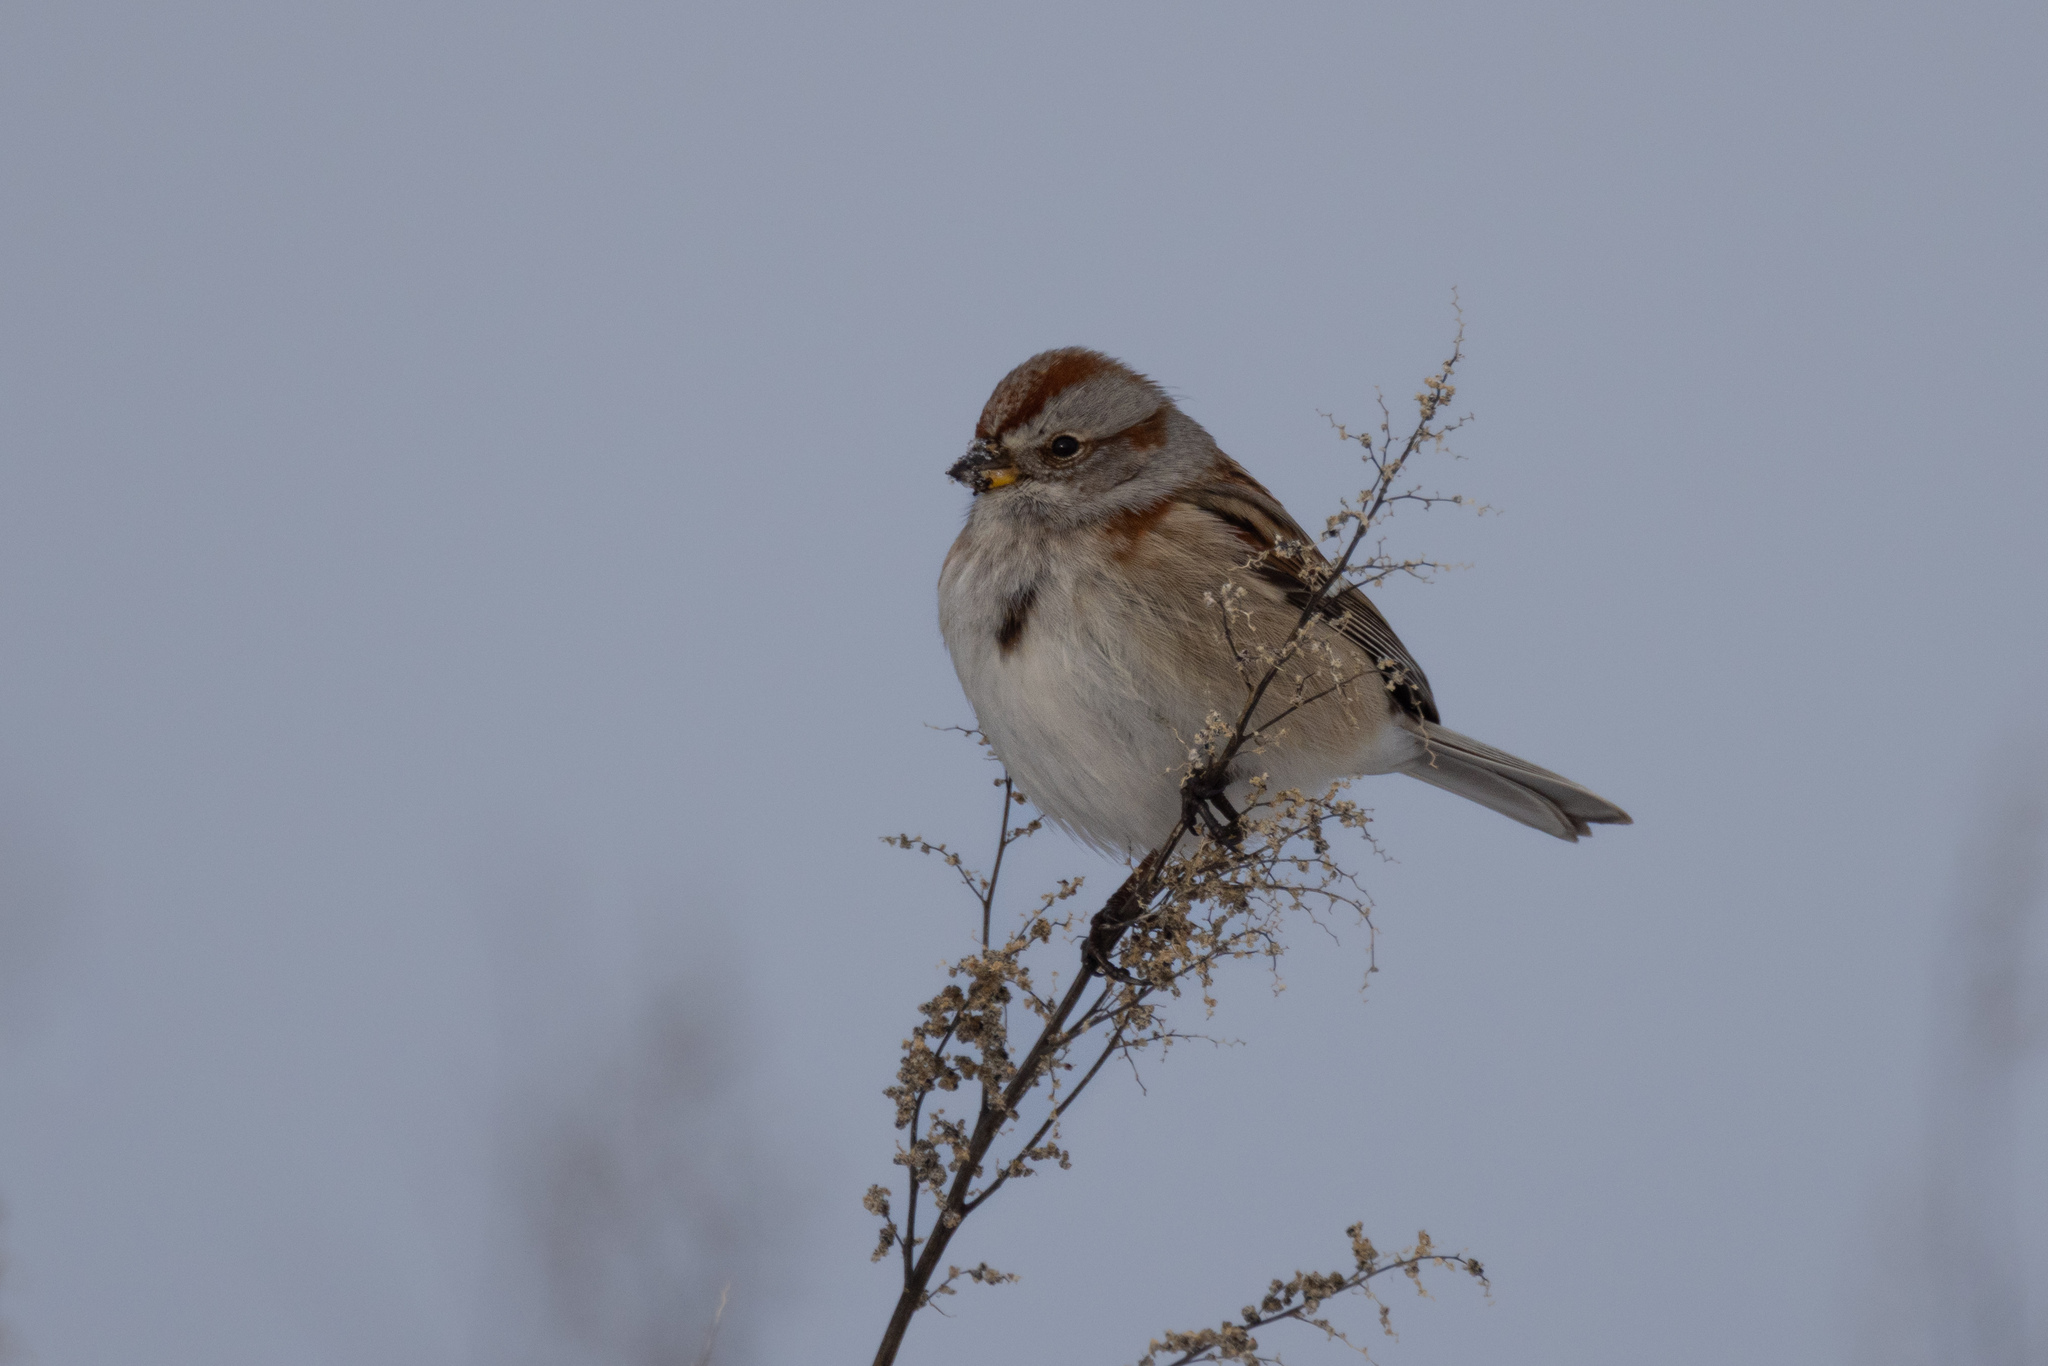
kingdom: Animalia
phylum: Chordata
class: Aves
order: Passeriformes
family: Passerellidae
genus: Spizelloides
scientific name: Spizelloides arborea
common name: American tree sparrow
